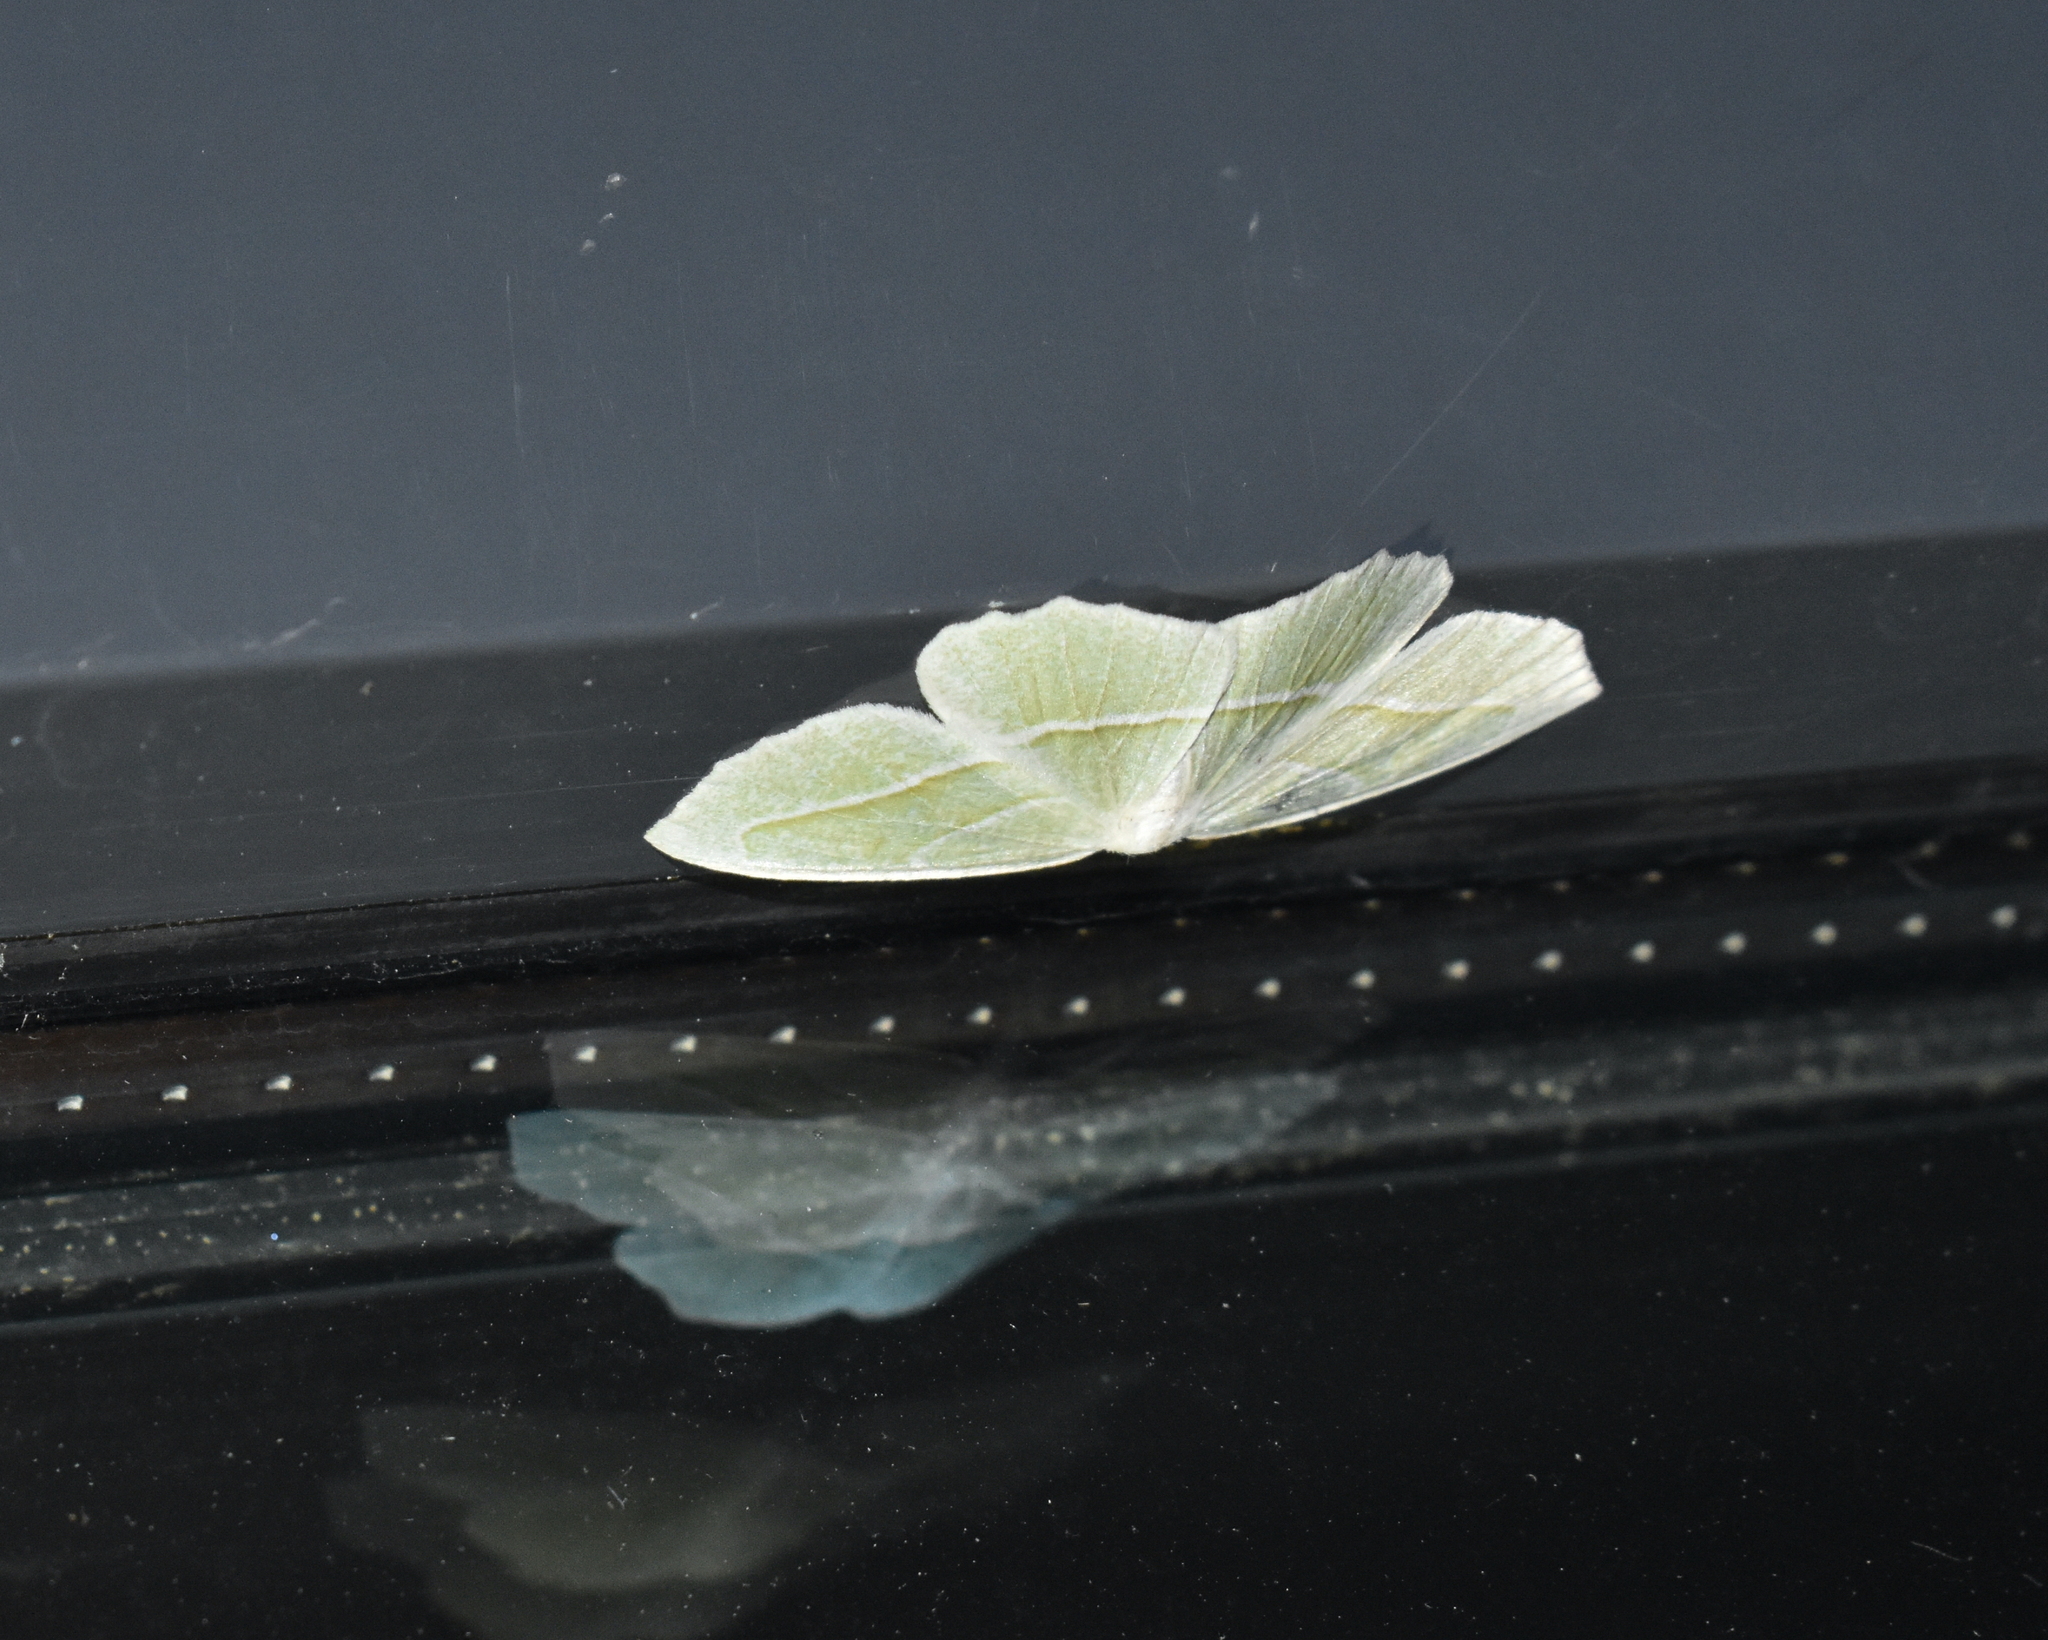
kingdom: Animalia
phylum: Arthropoda
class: Insecta
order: Lepidoptera
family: Geometridae
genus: Campaea
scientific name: Campaea perlata
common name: Fringed looper
